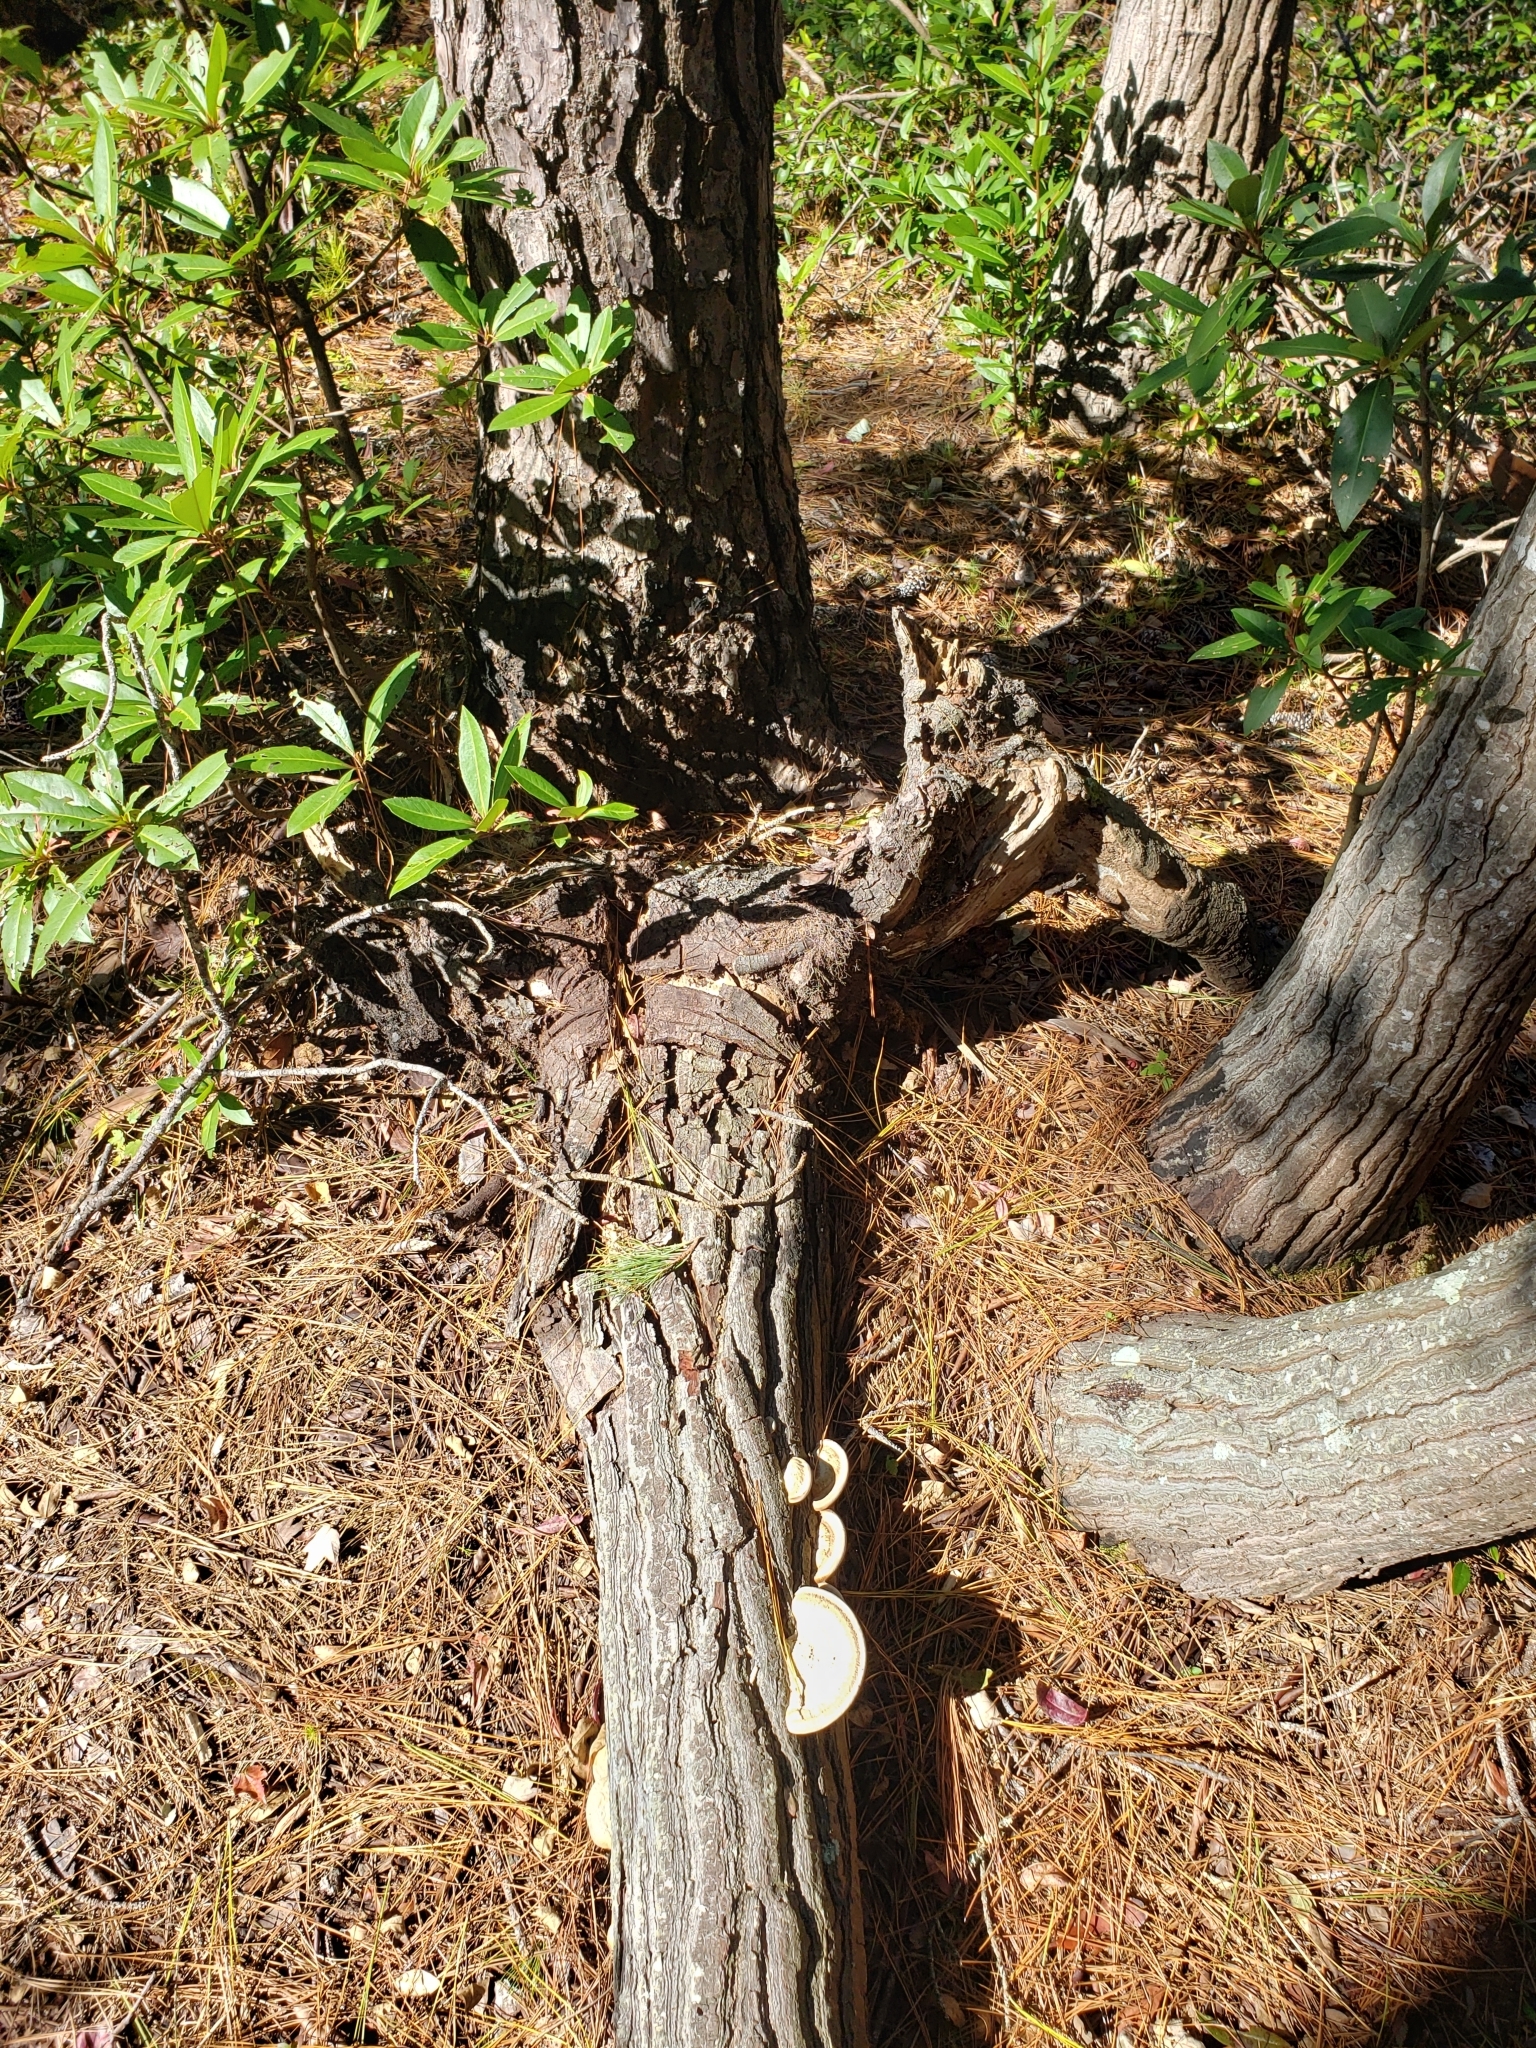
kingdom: Fungi
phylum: Basidiomycota
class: Agaricomycetes
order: Polyporales
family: Polyporaceae
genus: Trametes
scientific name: Trametes lactinea
